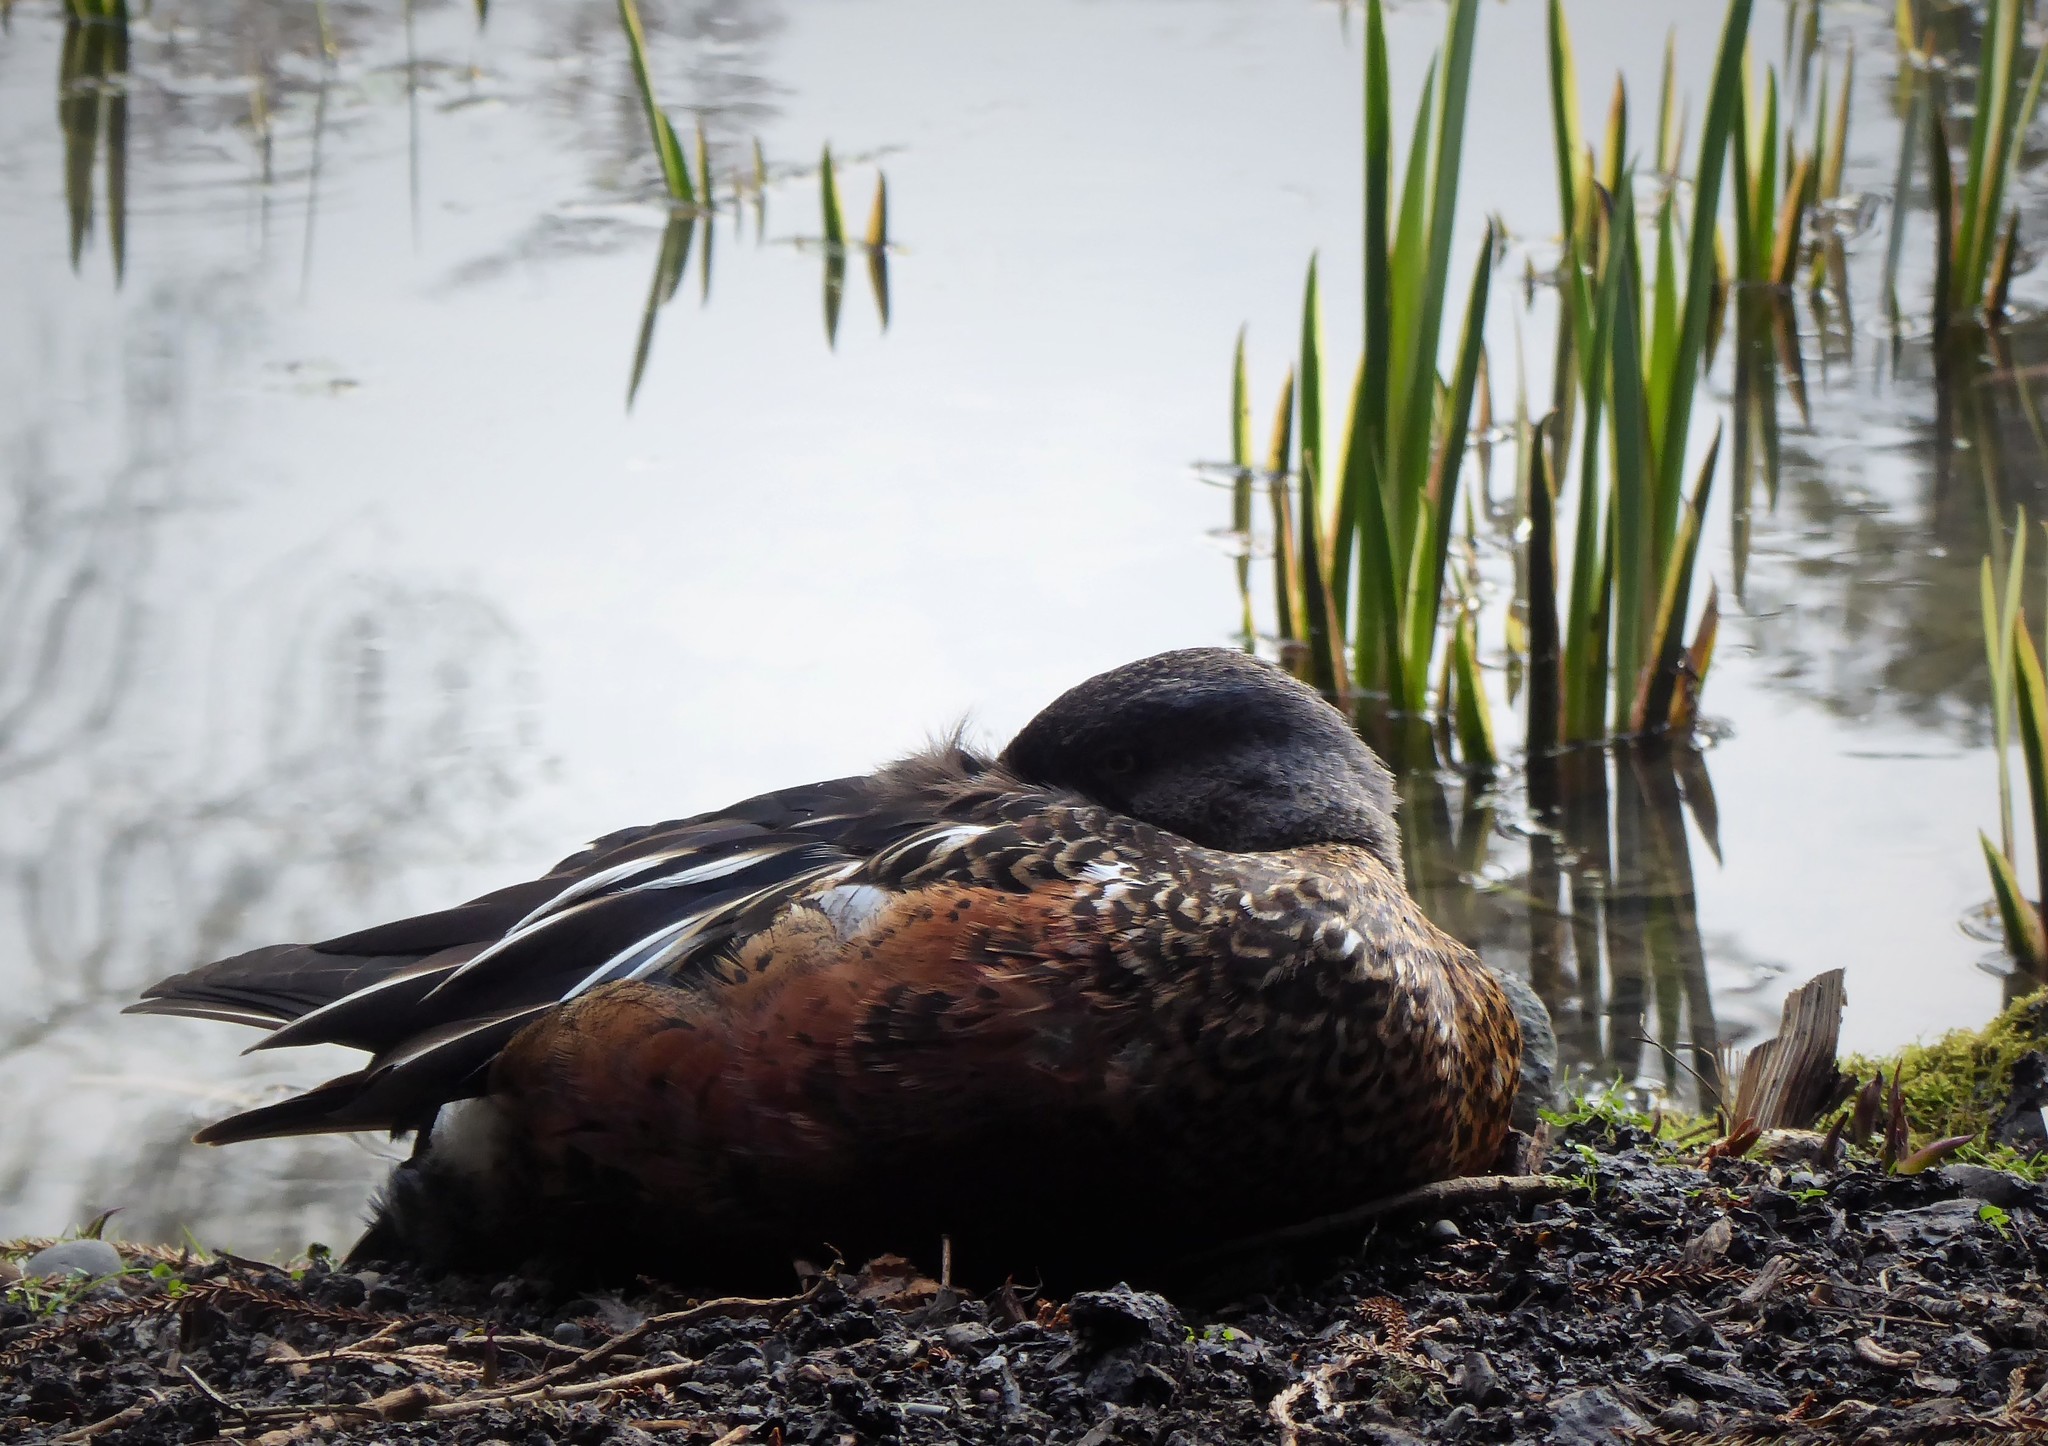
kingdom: Animalia
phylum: Chordata
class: Aves
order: Anseriformes
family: Anatidae
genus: Spatula
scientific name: Spatula rhynchotis
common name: Australian shoveler
